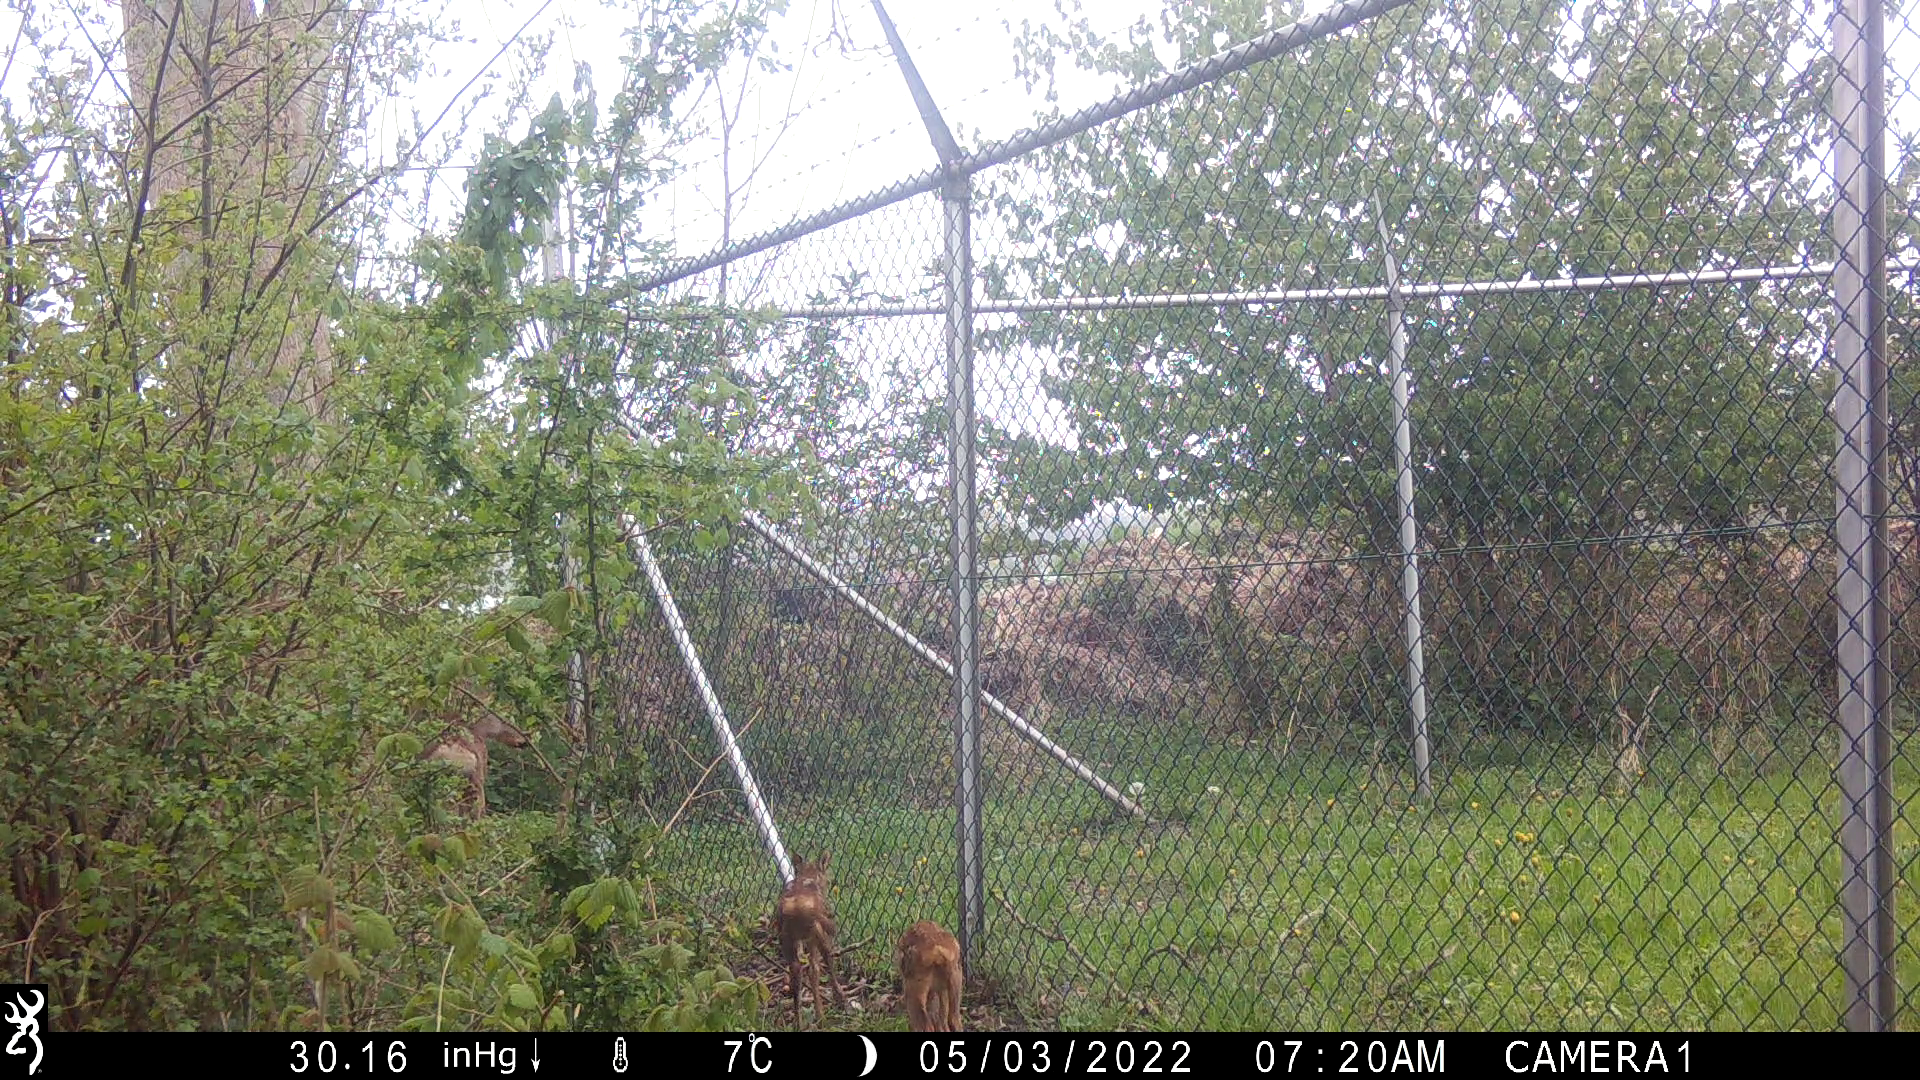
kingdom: Animalia
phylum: Chordata
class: Mammalia
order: Artiodactyla
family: Cervidae
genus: Capreolus
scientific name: Capreolus capreolus
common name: Western roe deer
